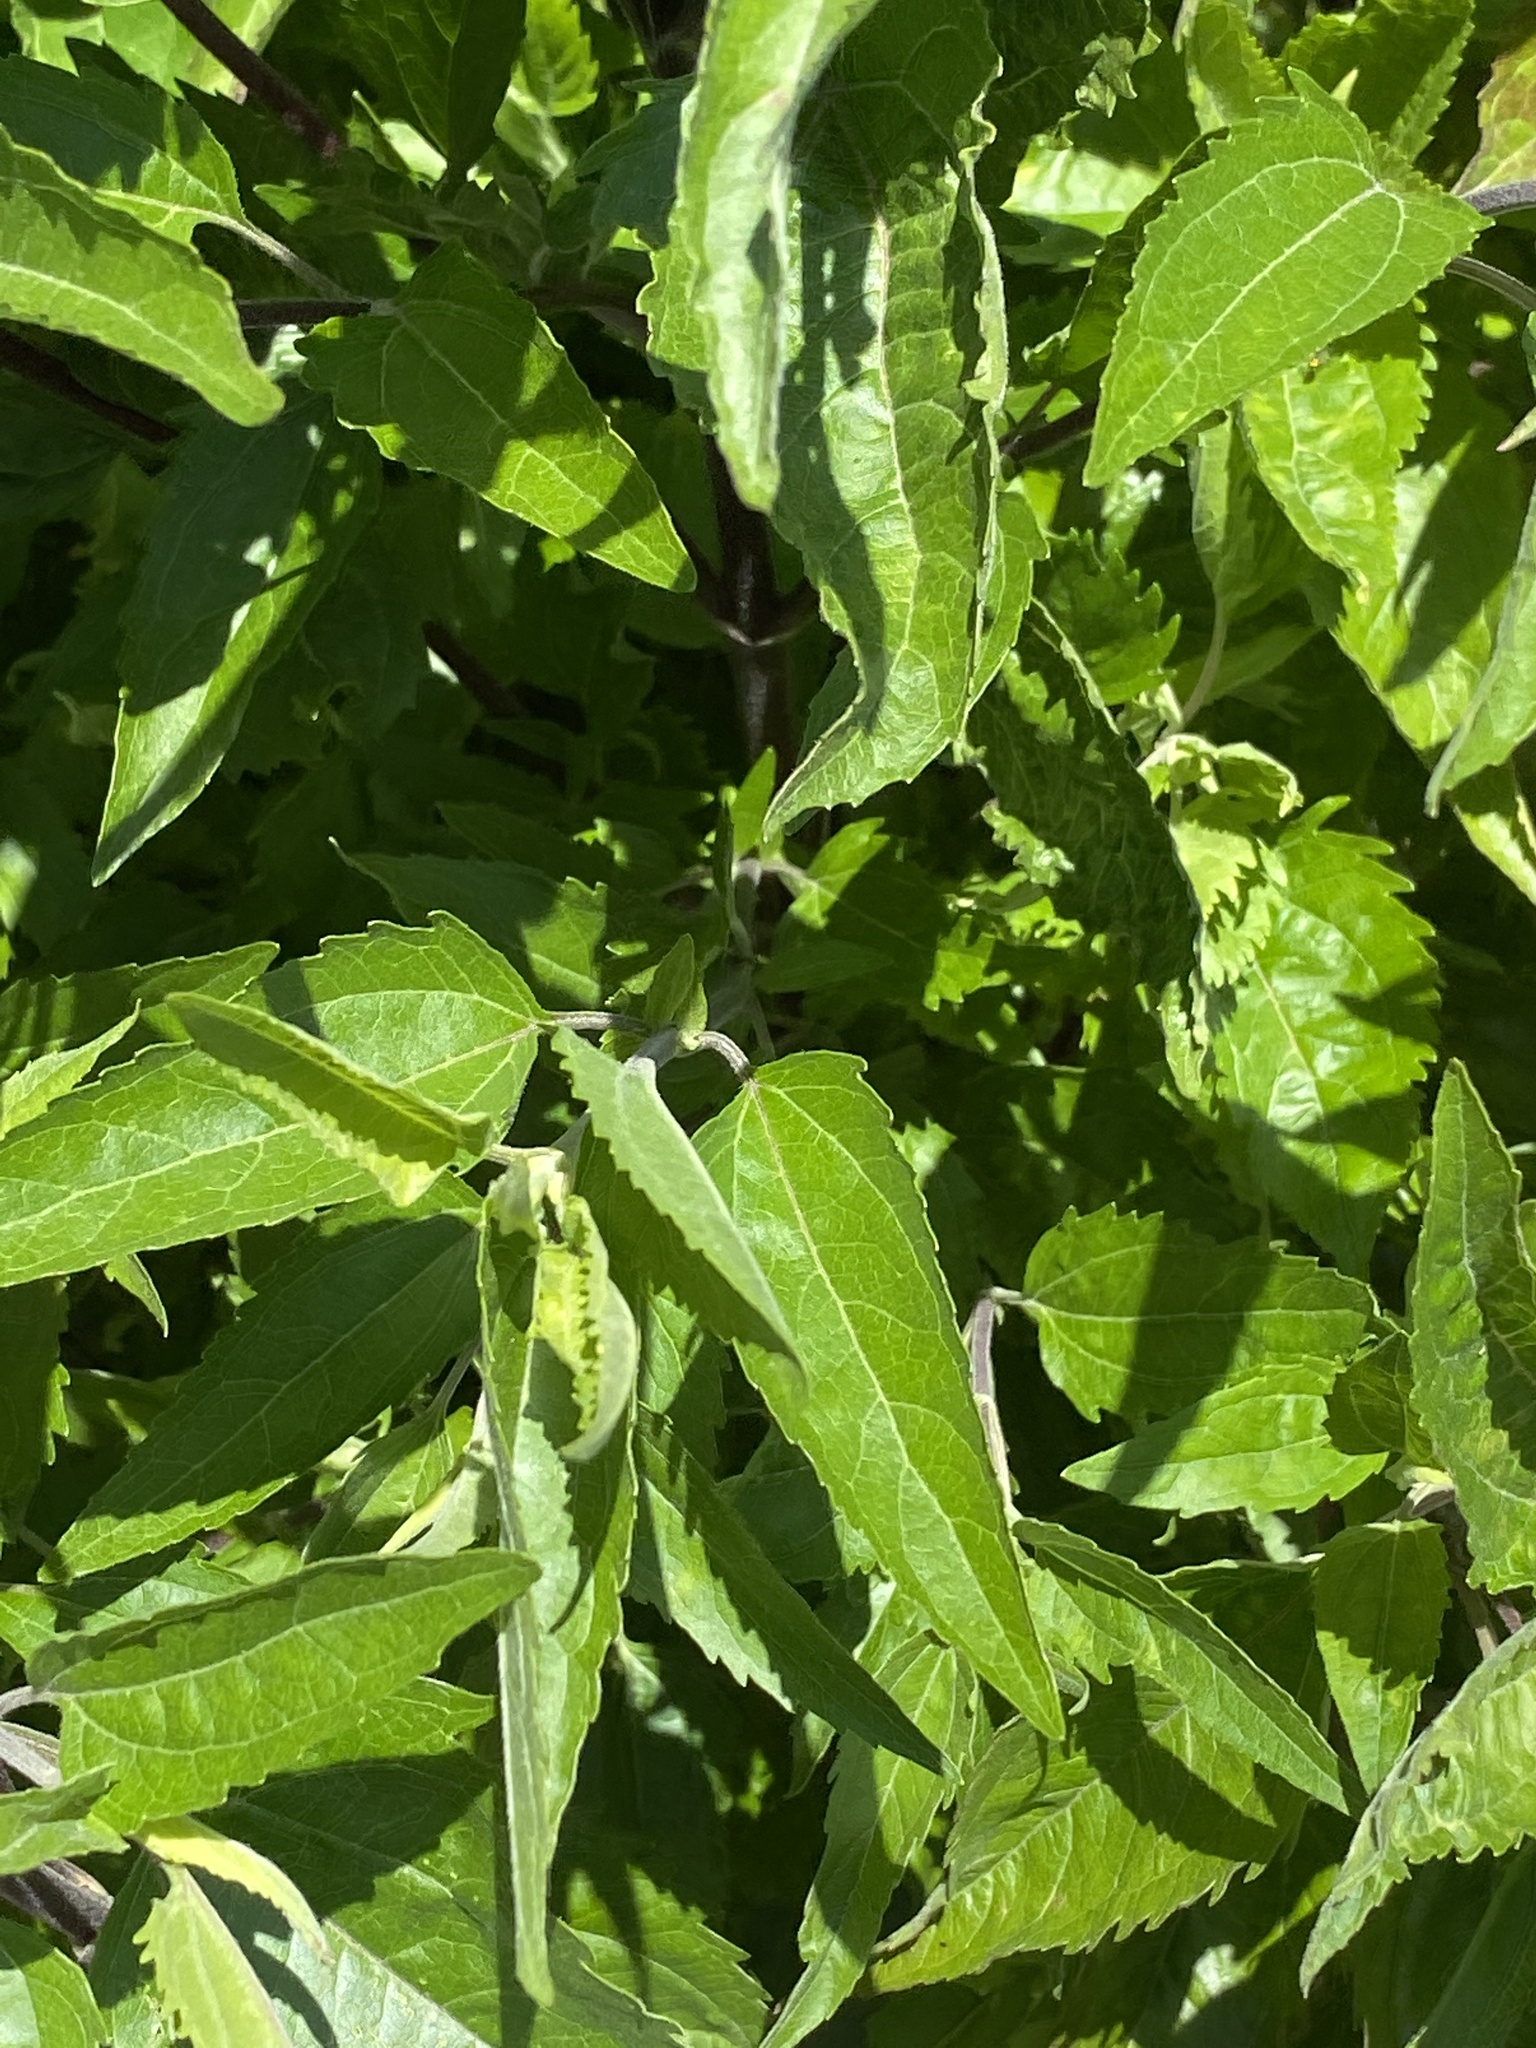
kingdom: Plantae
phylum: Tracheophyta
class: Magnoliopsida
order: Asterales
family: Asteraceae
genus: Eupatorium
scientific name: Eupatorium serotinum
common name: Late boneset
